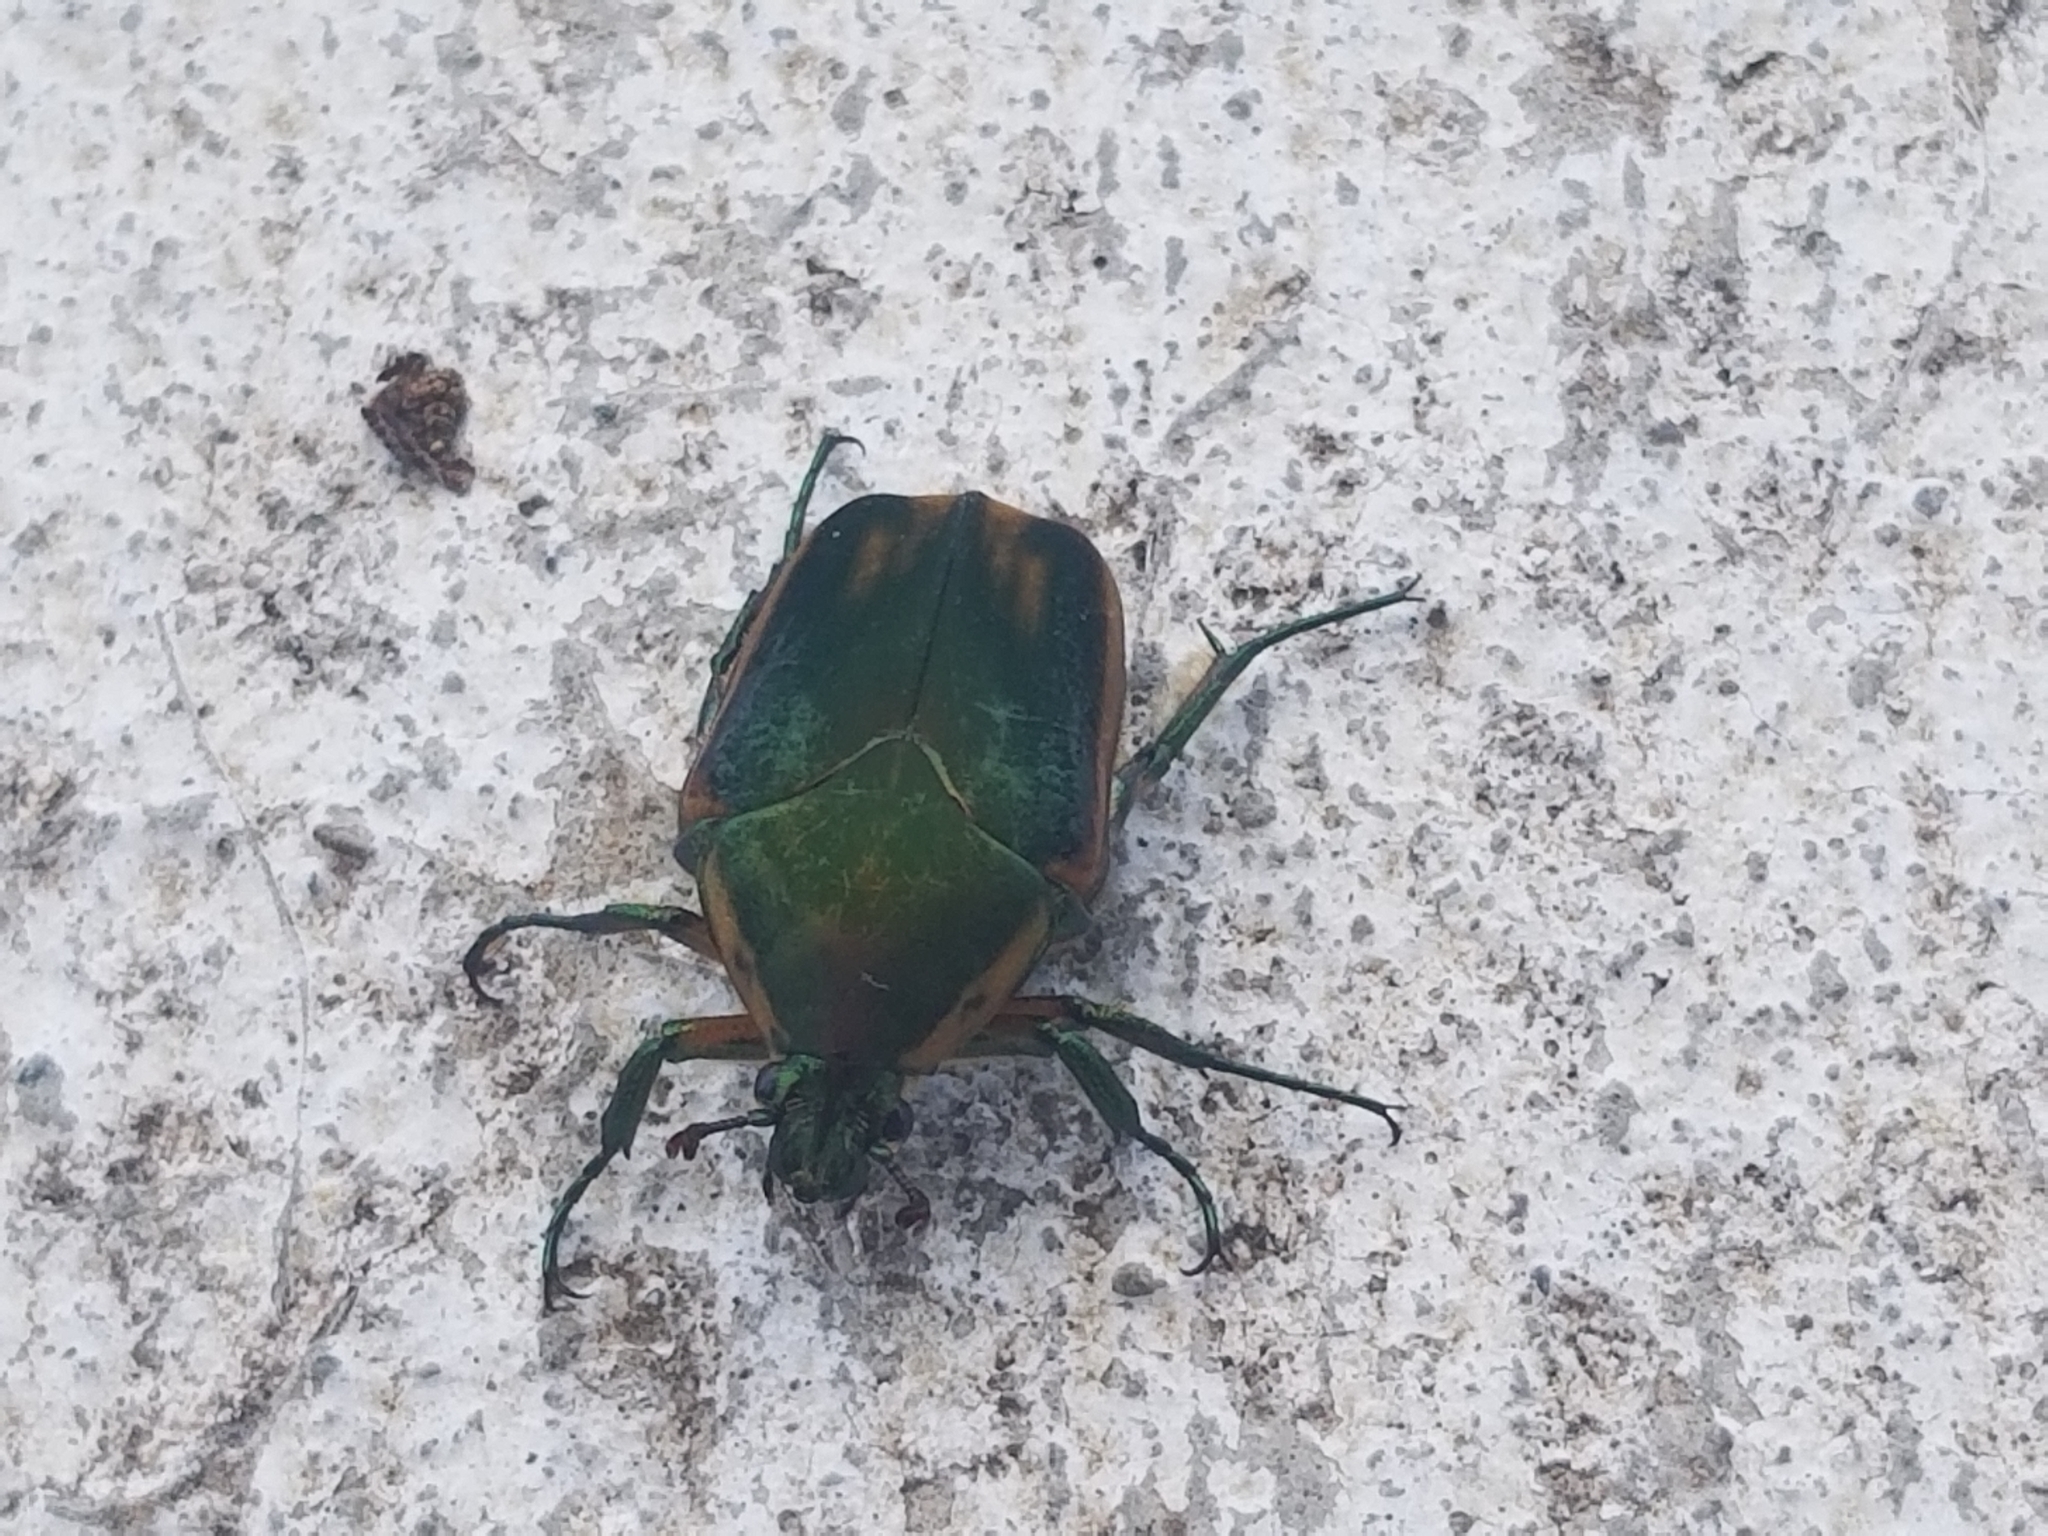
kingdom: Animalia
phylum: Arthropoda
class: Insecta
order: Coleoptera
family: Scarabaeidae
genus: Cotinis
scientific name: Cotinis nitida
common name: Common green june beetle
